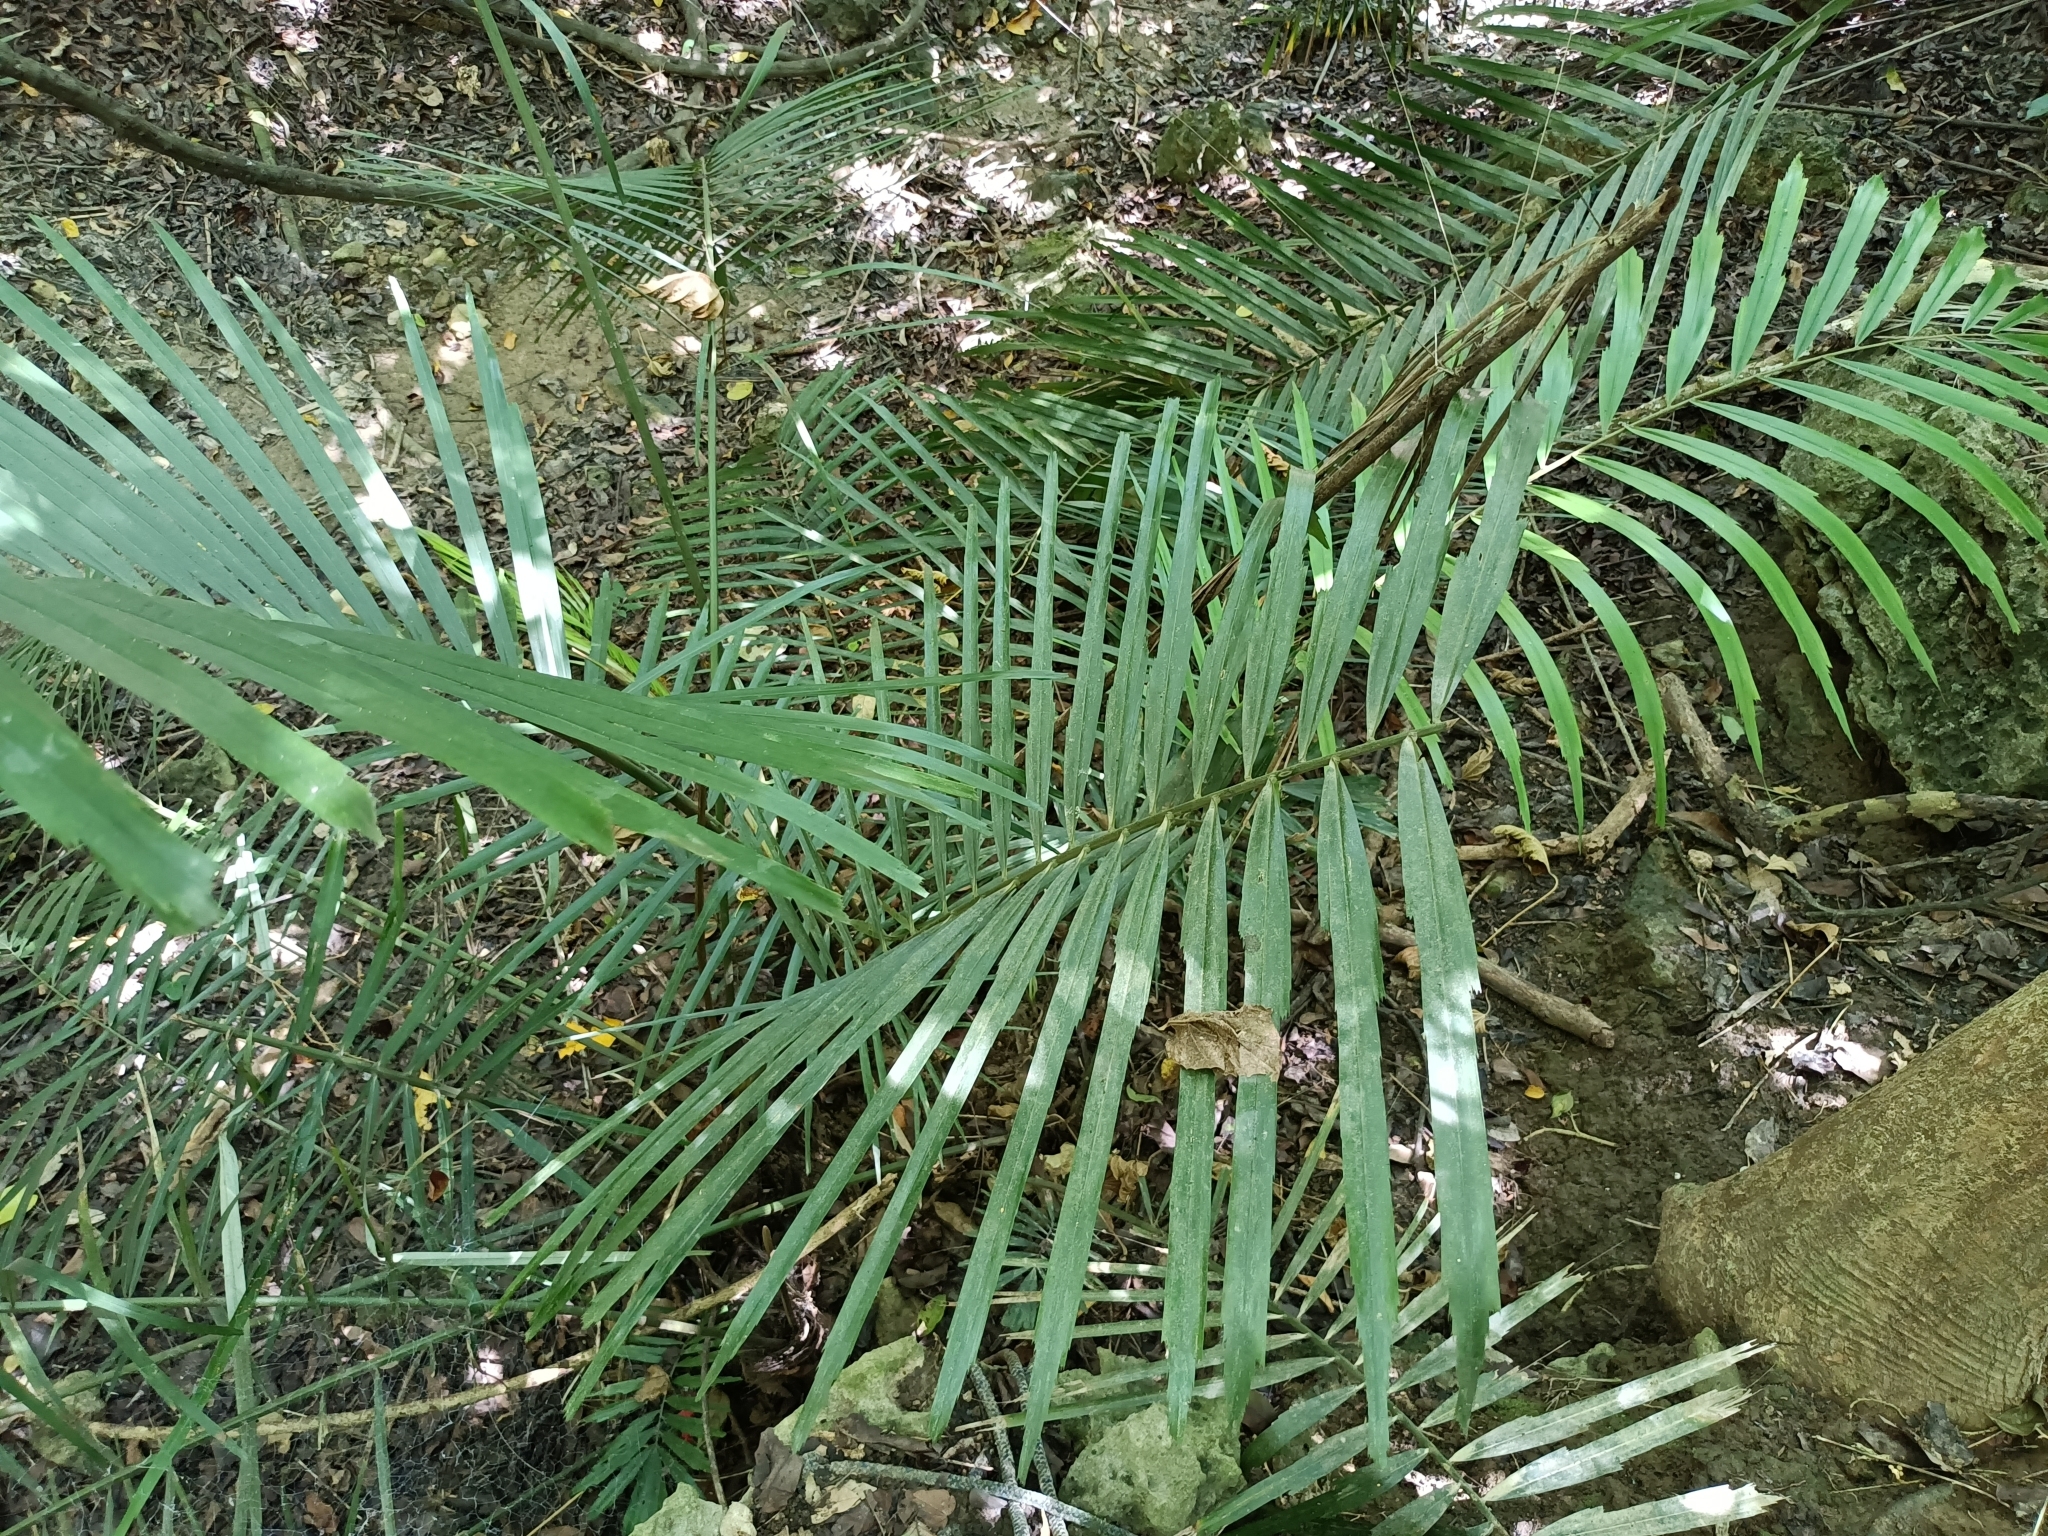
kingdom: Plantae
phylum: Tracheophyta
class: Liliopsida
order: Arecales
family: Arecaceae
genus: Arenga
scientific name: Arenga engleri
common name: Formosan sugar palm
